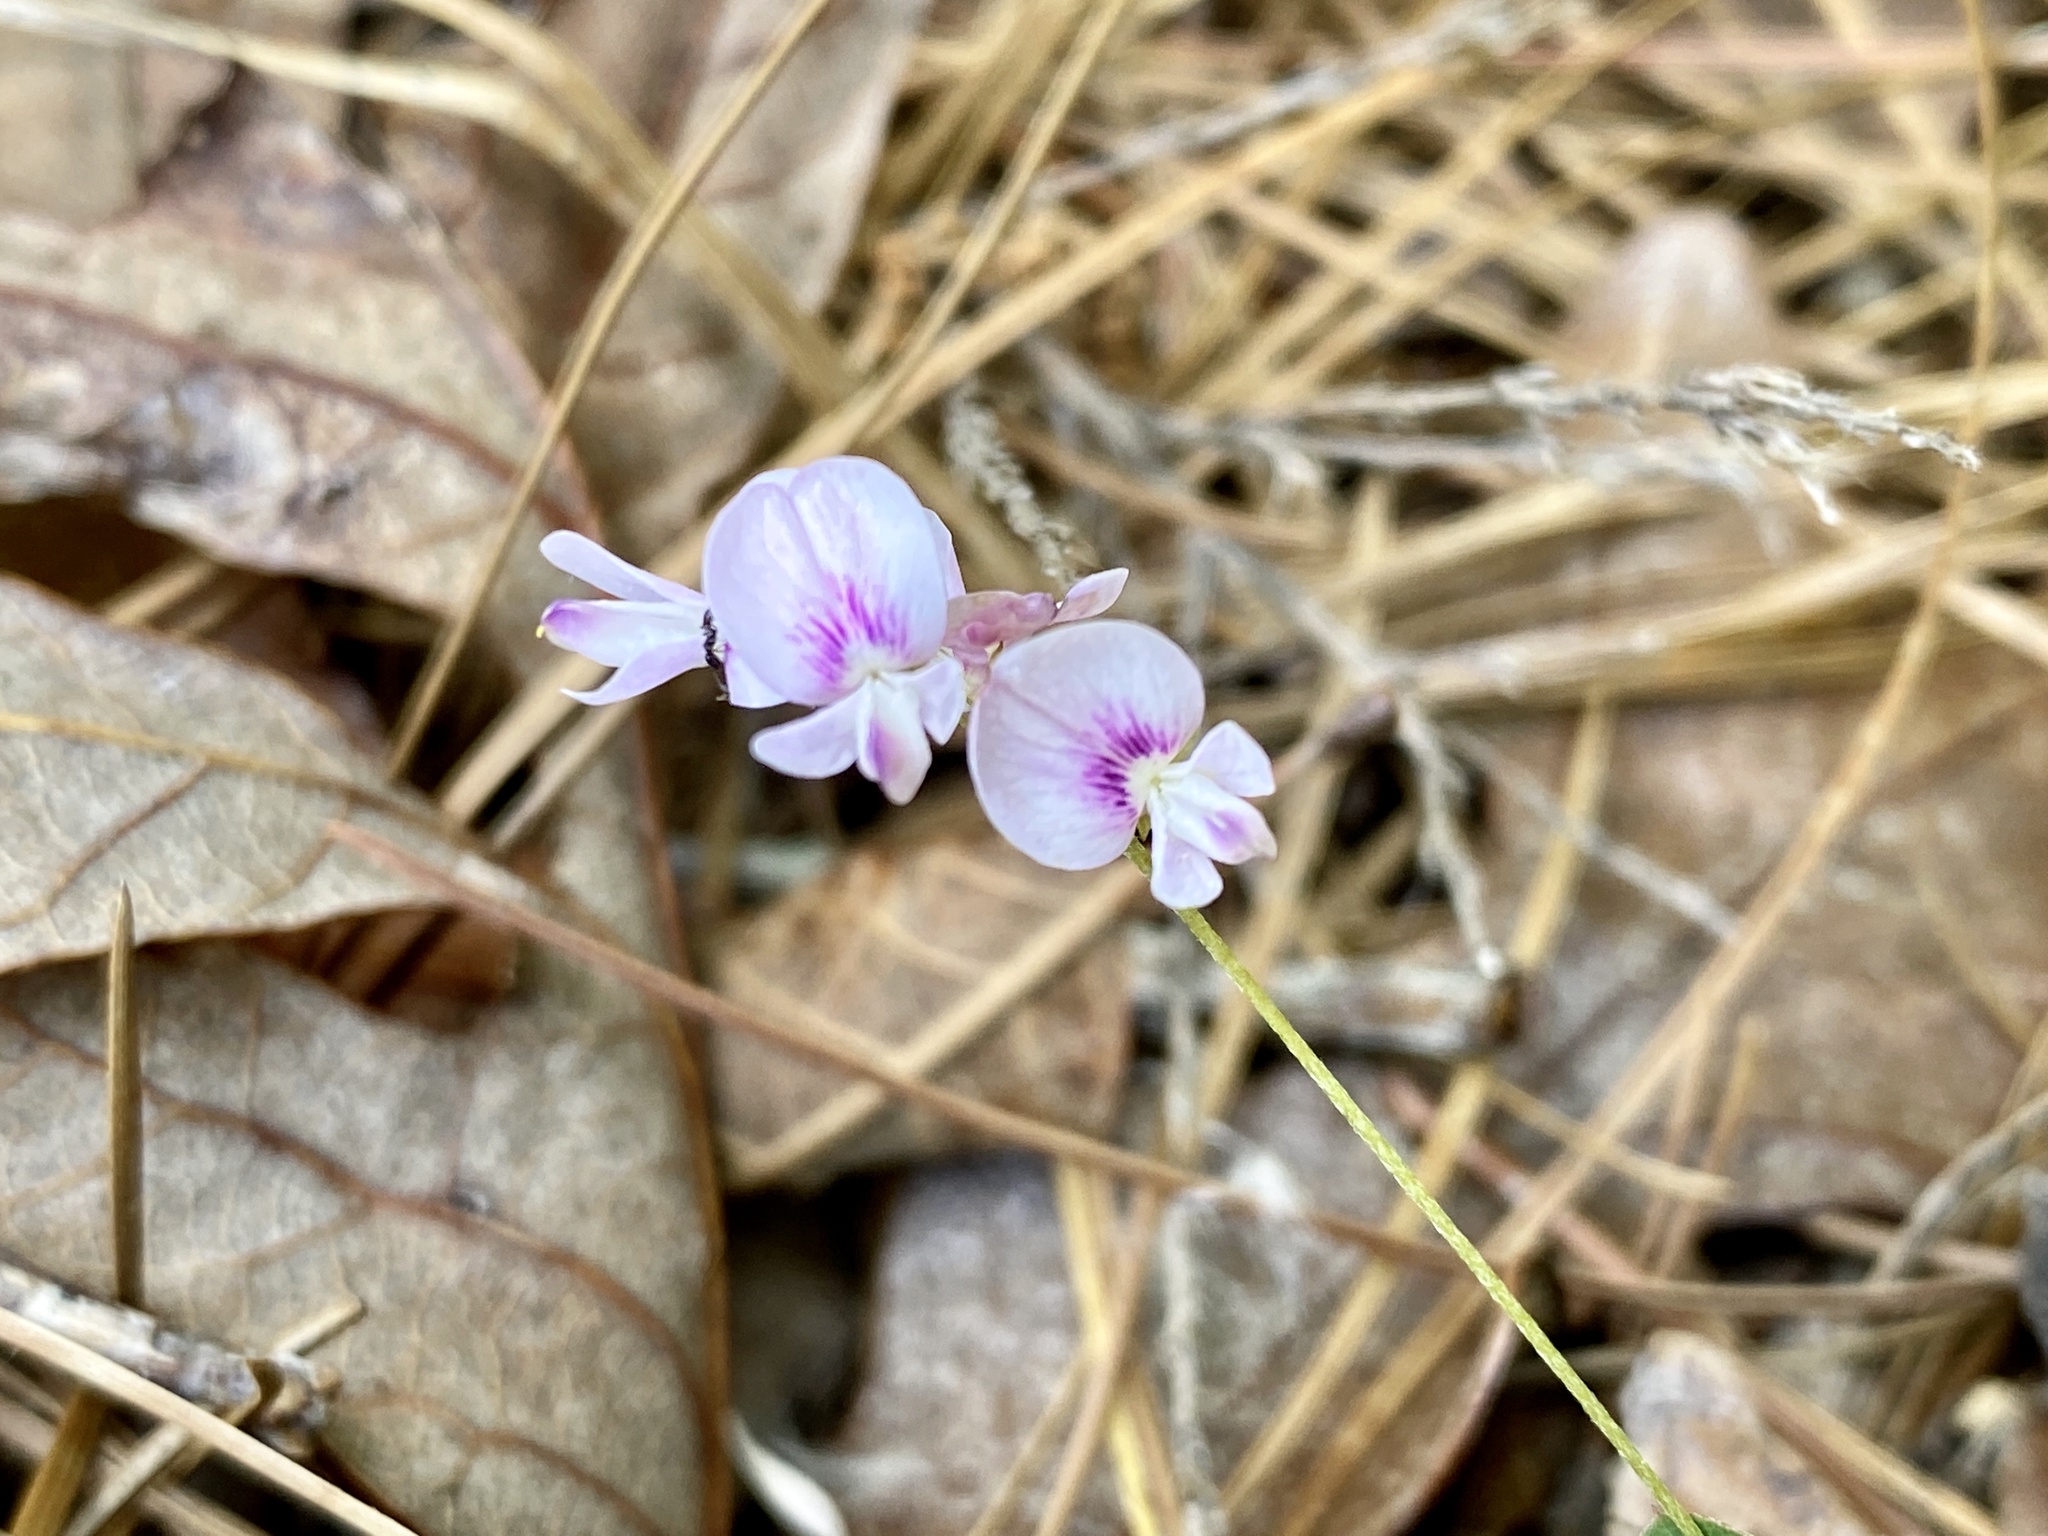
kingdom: Plantae
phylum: Tracheophyta
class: Magnoliopsida
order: Fabales
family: Fabaceae
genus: Lespedeza
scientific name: Lespedeza repens
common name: Creeping bush-clover
